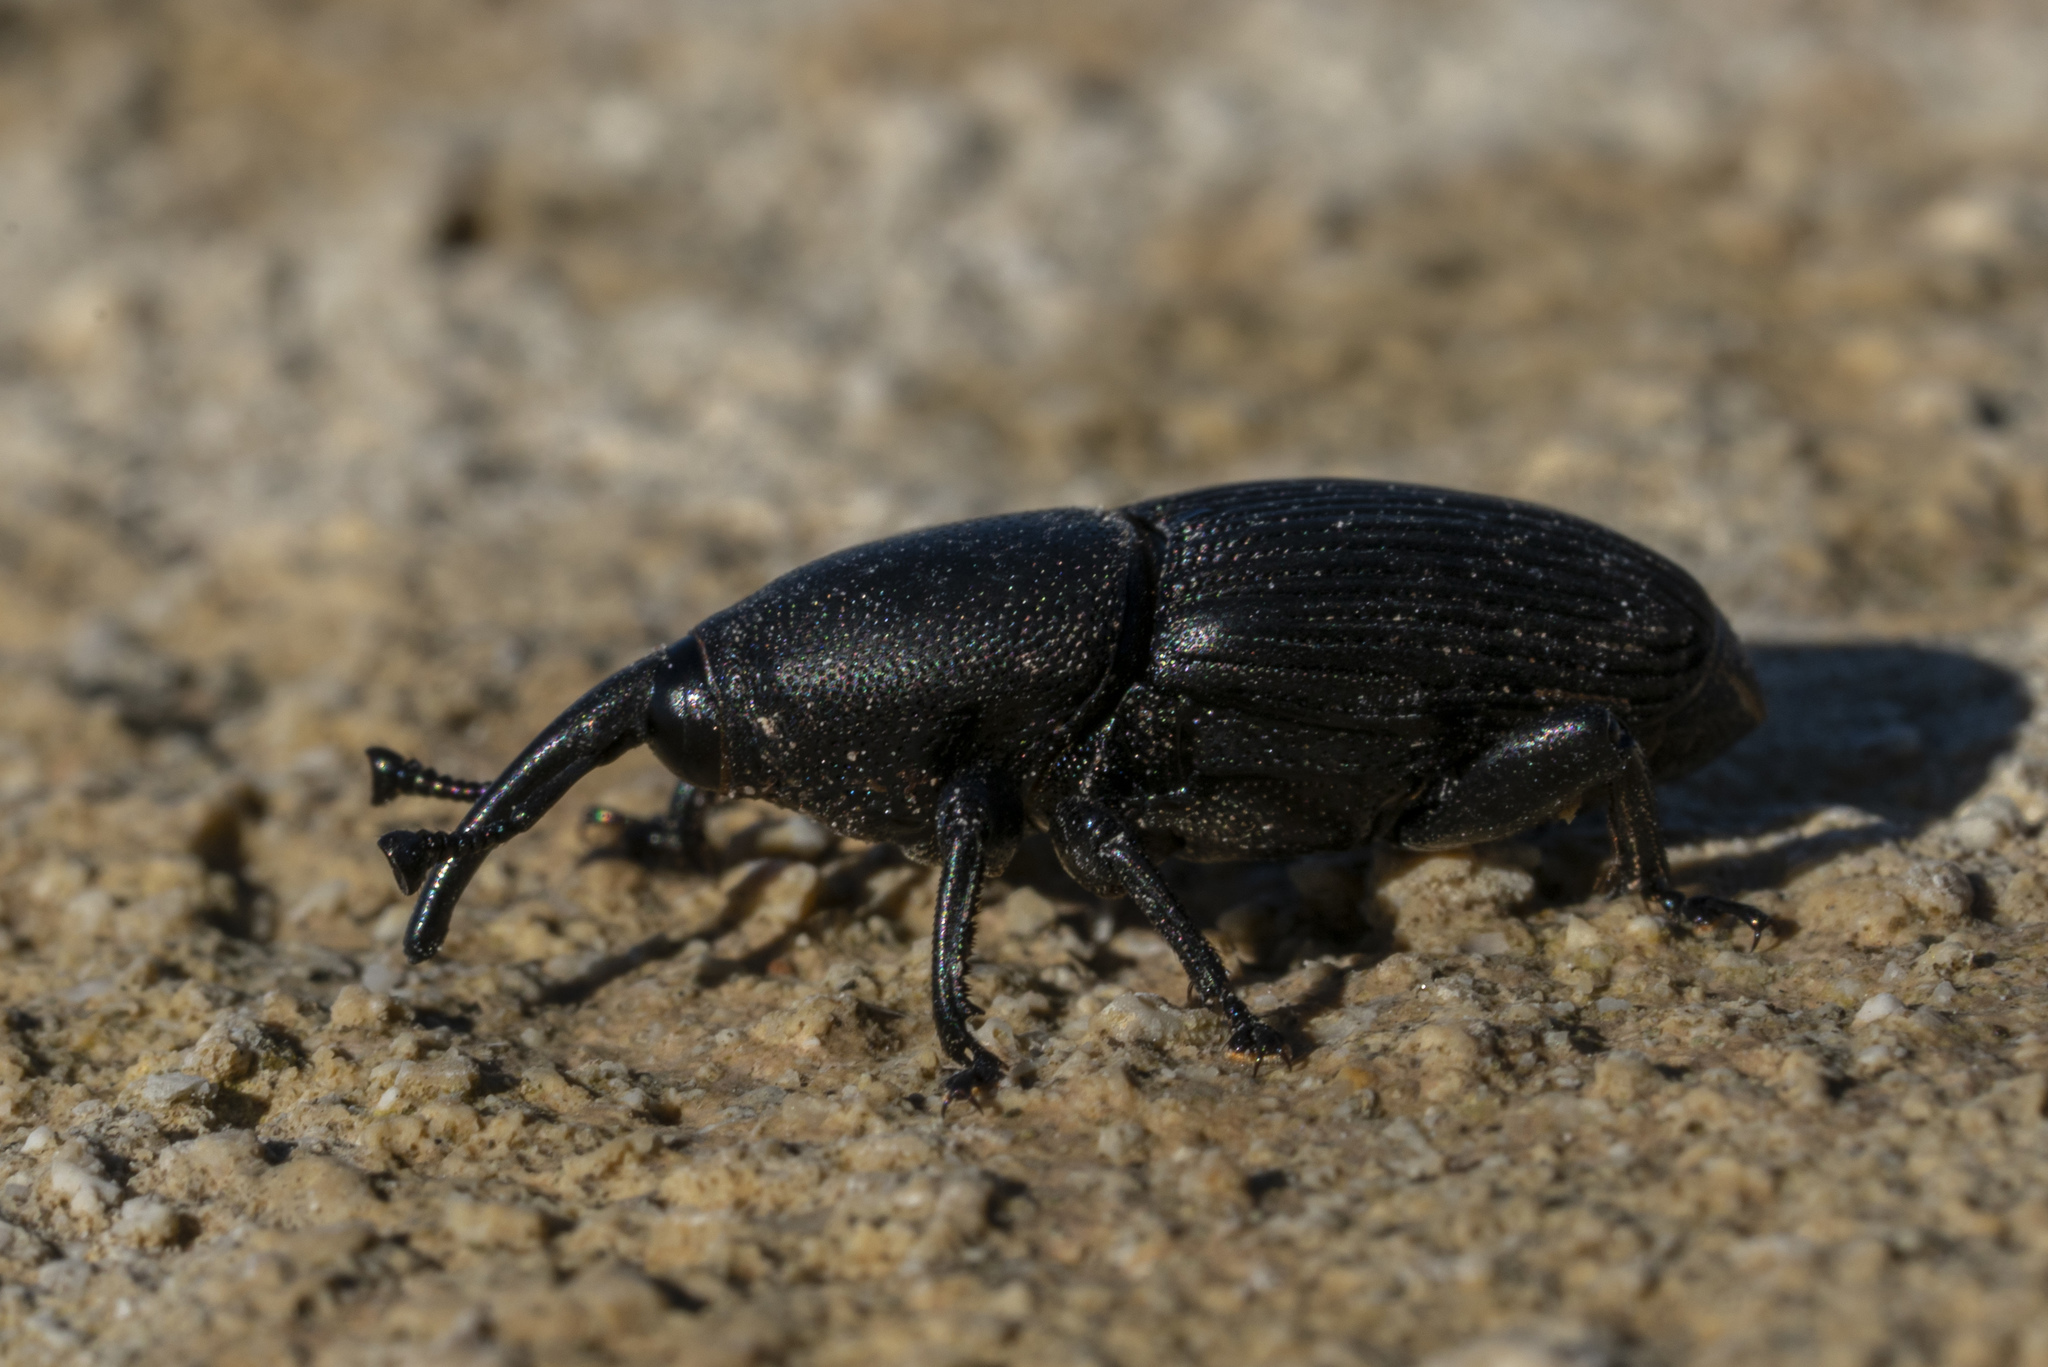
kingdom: Animalia
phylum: Arthropoda
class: Insecta
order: Coleoptera
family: Dryophthoridae
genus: Scyphophorus
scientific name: Scyphophorus acupunctatus
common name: Weevil
